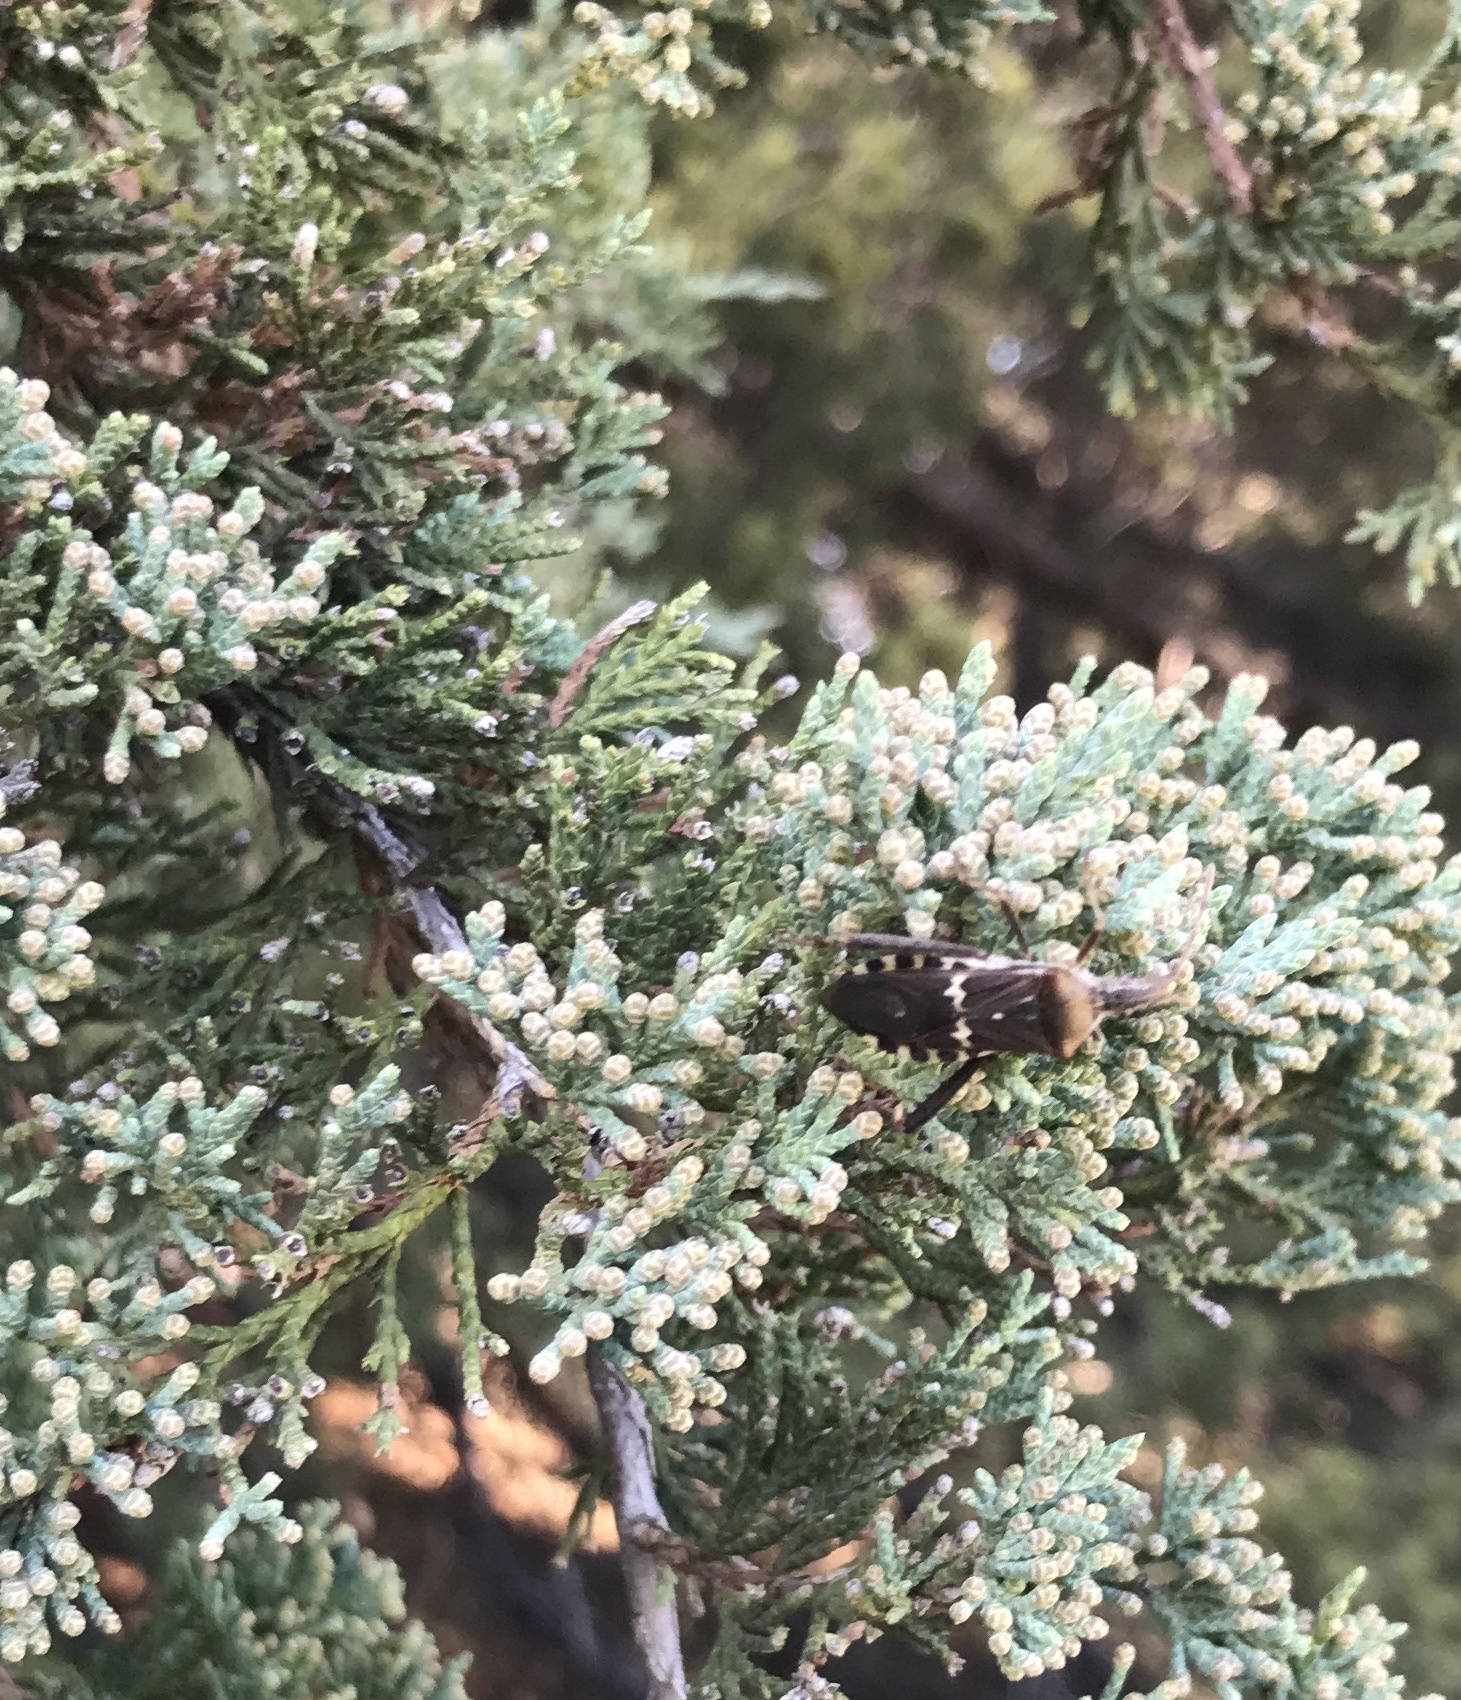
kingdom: Animalia
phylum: Arthropoda
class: Insecta
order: Hemiptera
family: Coreidae
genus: Leptoglossus
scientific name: Leptoglossus clypealis
